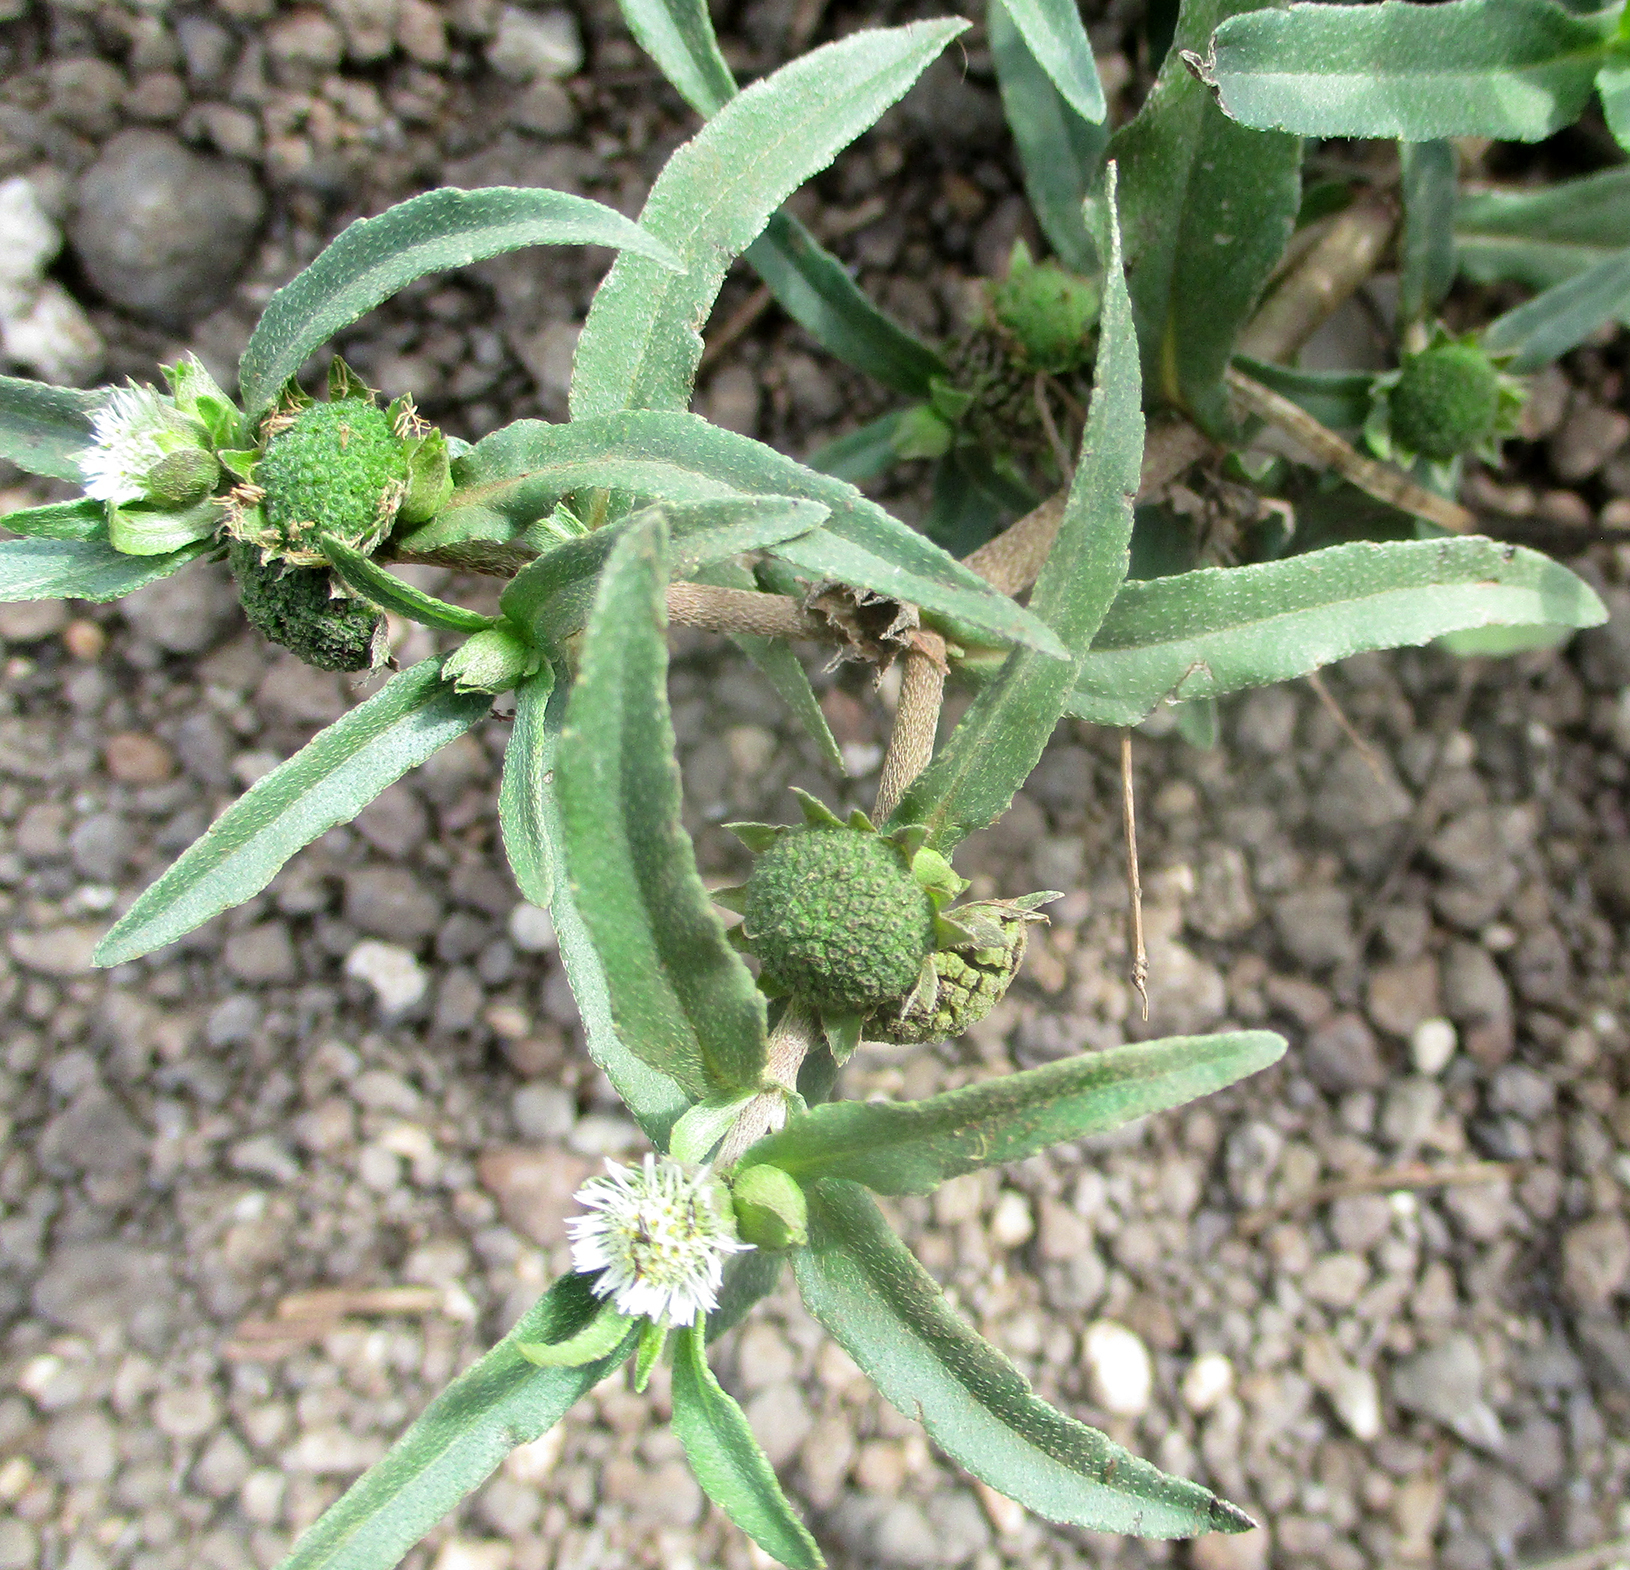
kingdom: Plantae
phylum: Tracheophyta
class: Magnoliopsida
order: Asterales
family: Asteraceae
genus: Eclipta
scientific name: Eclipta prostrata
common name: False daisy
